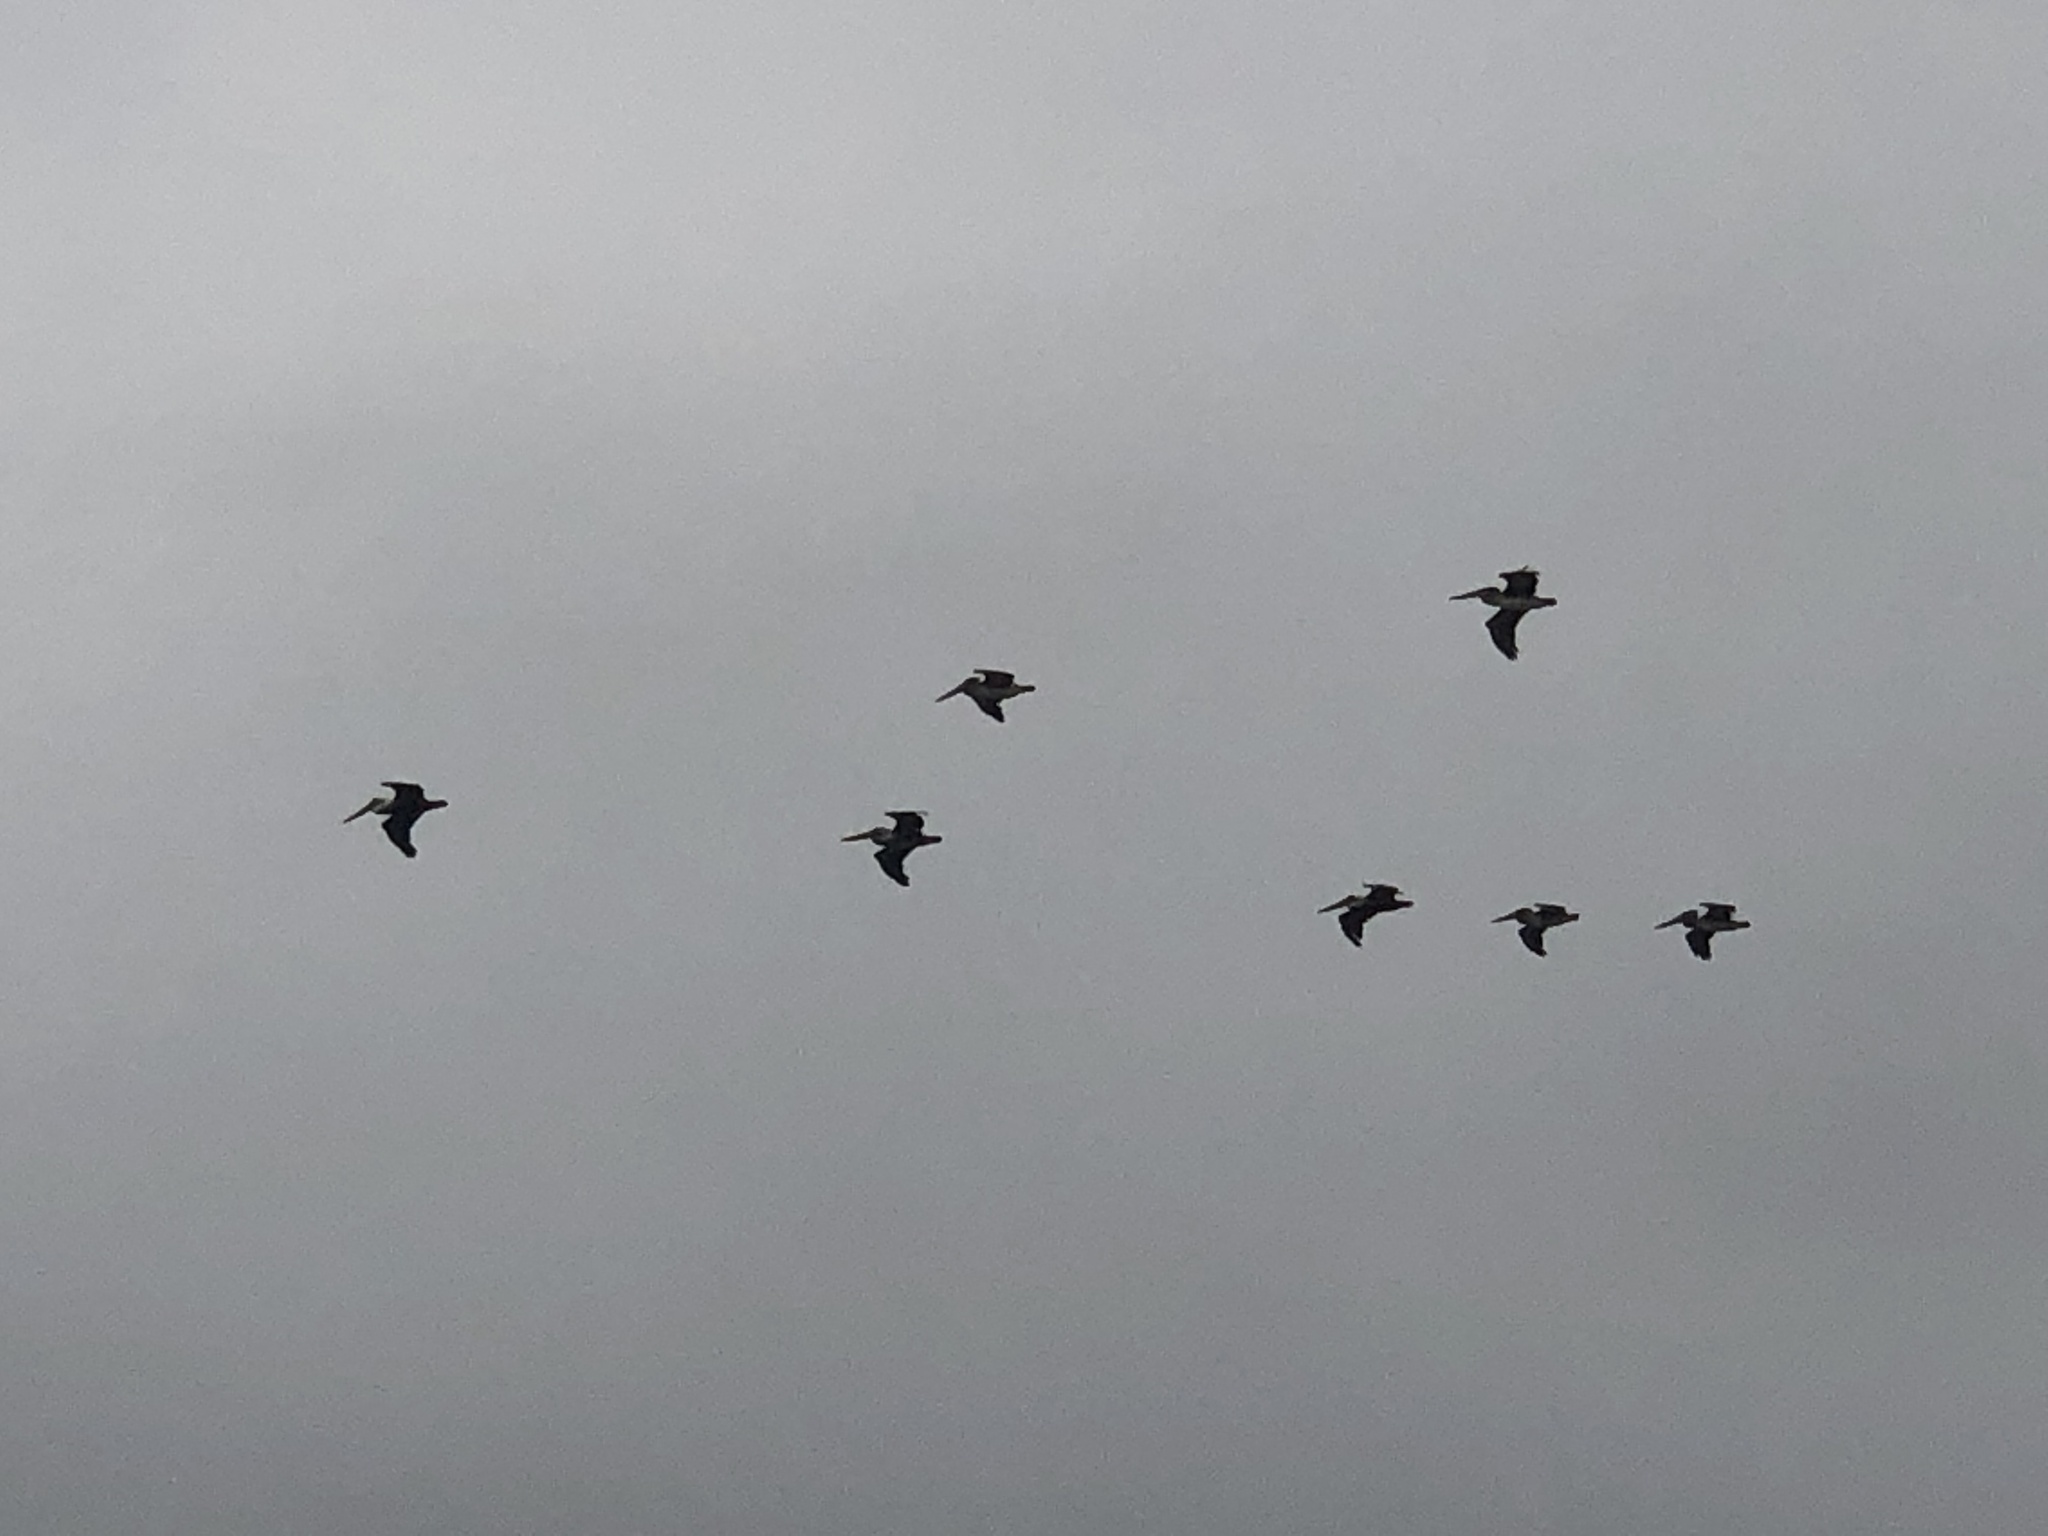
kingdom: Animalia
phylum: Chordata
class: Aves
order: Pelecaniformes
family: Pelecanidae
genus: Pelecanus
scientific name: Pelecanus occidentalis
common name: Brown pelican
